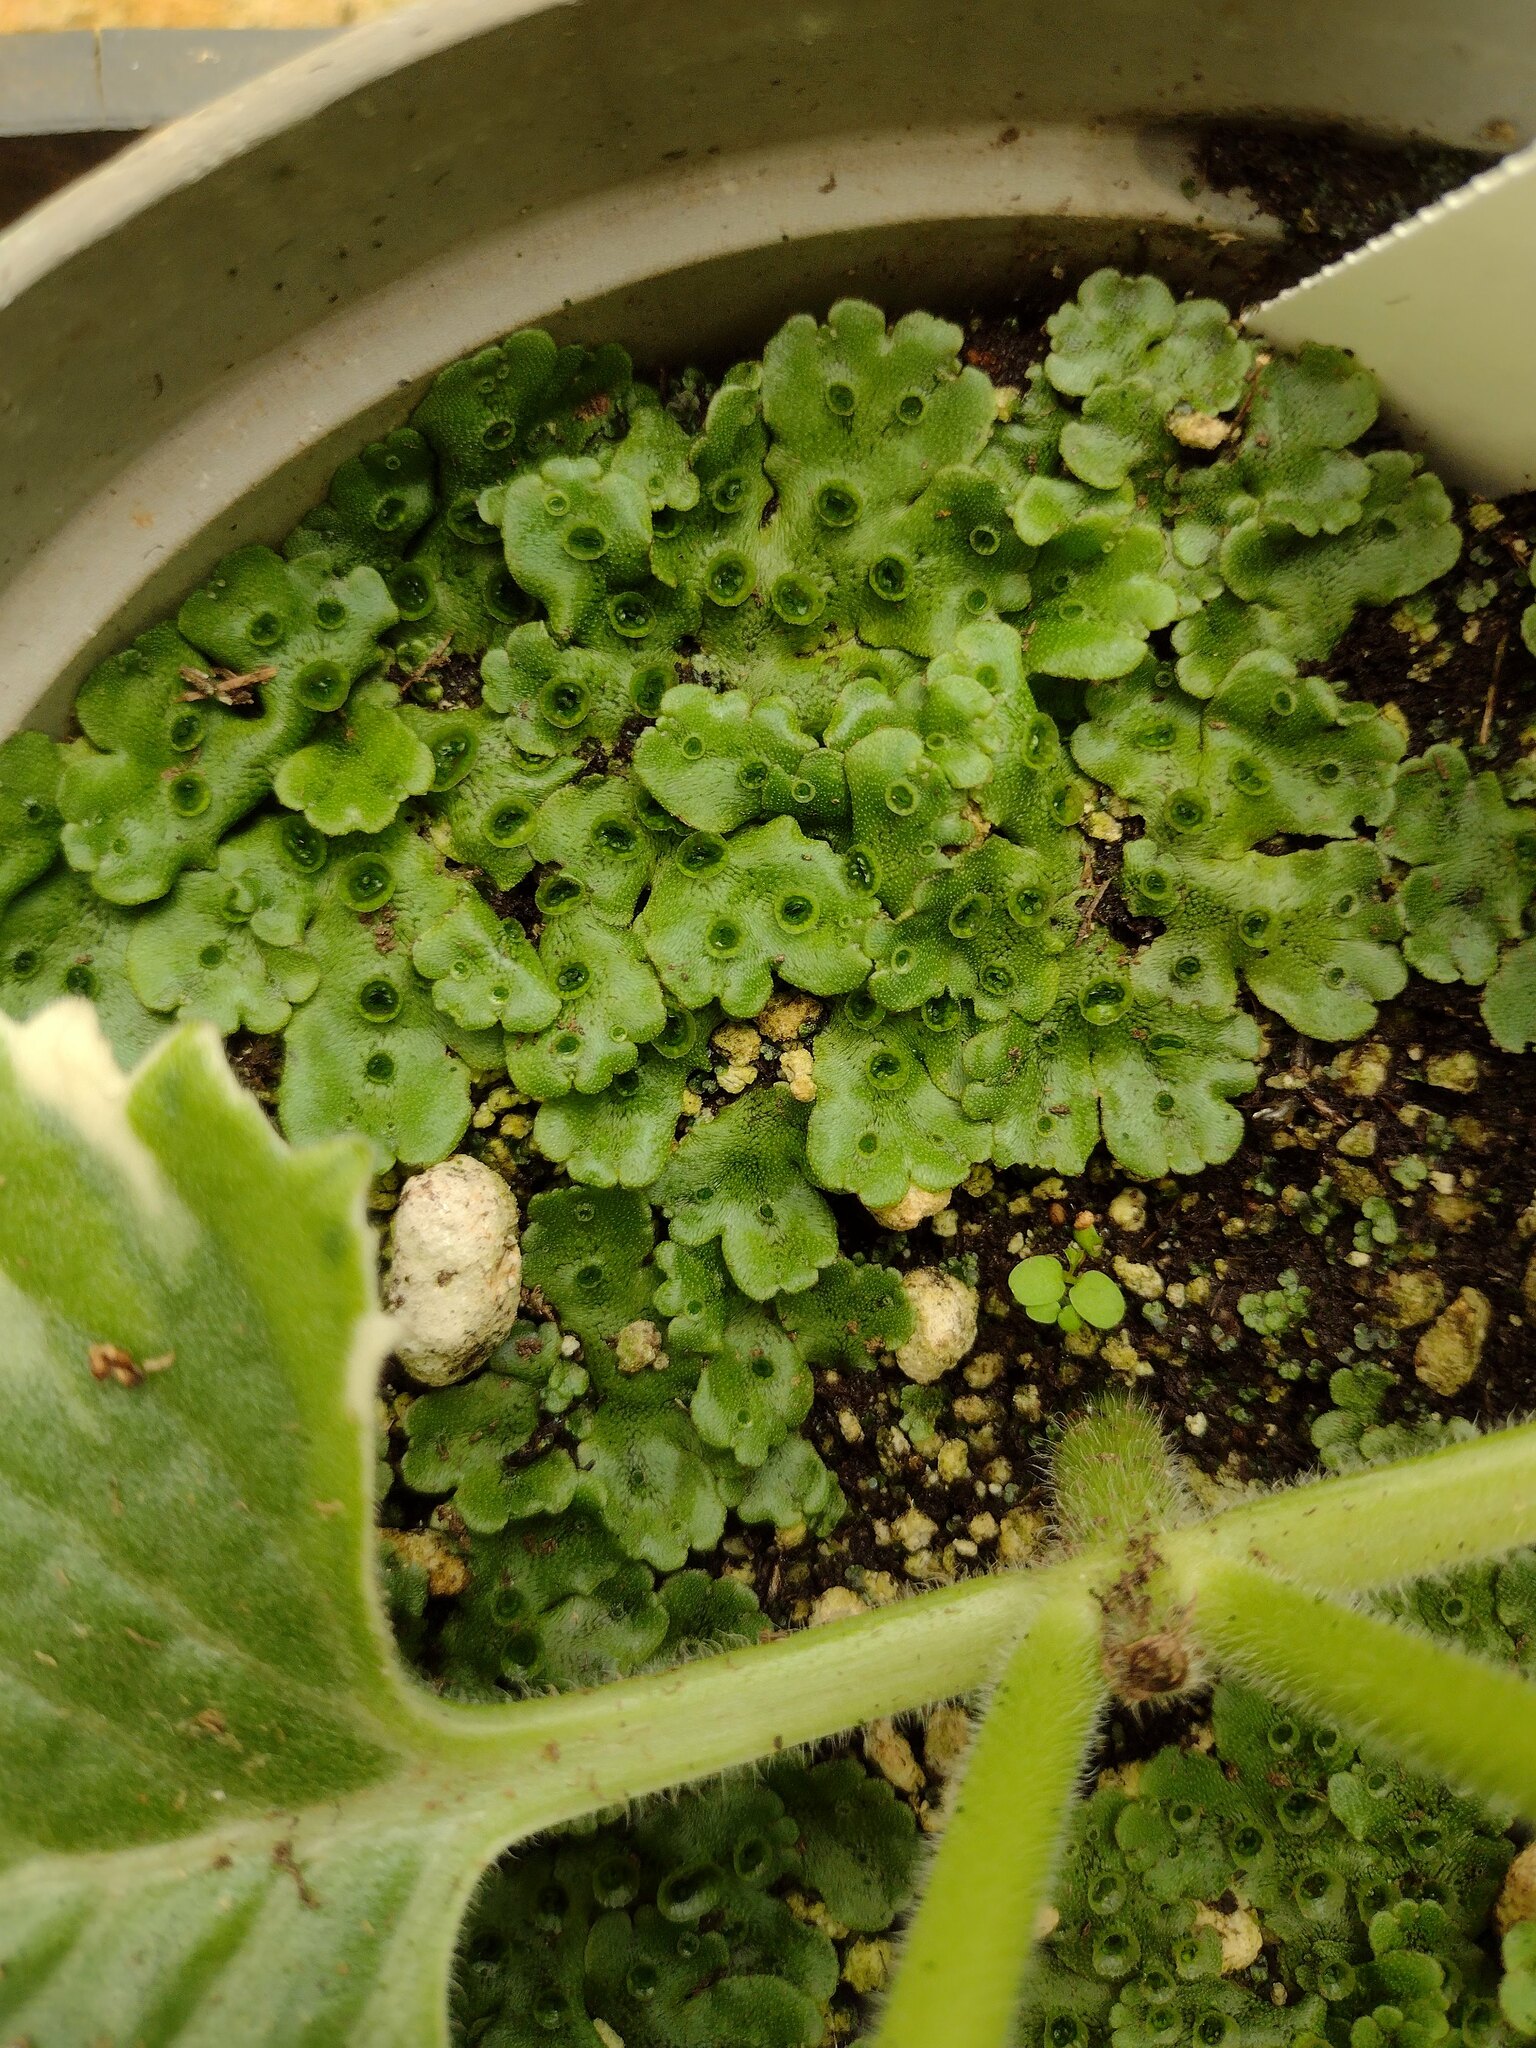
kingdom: Plantae
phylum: Marchantiophyta
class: Marchantiopsida
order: Marchantiales
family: Marchantiaceae
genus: Marchantia
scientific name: Marchantia polymorpha
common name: Common liverwort
